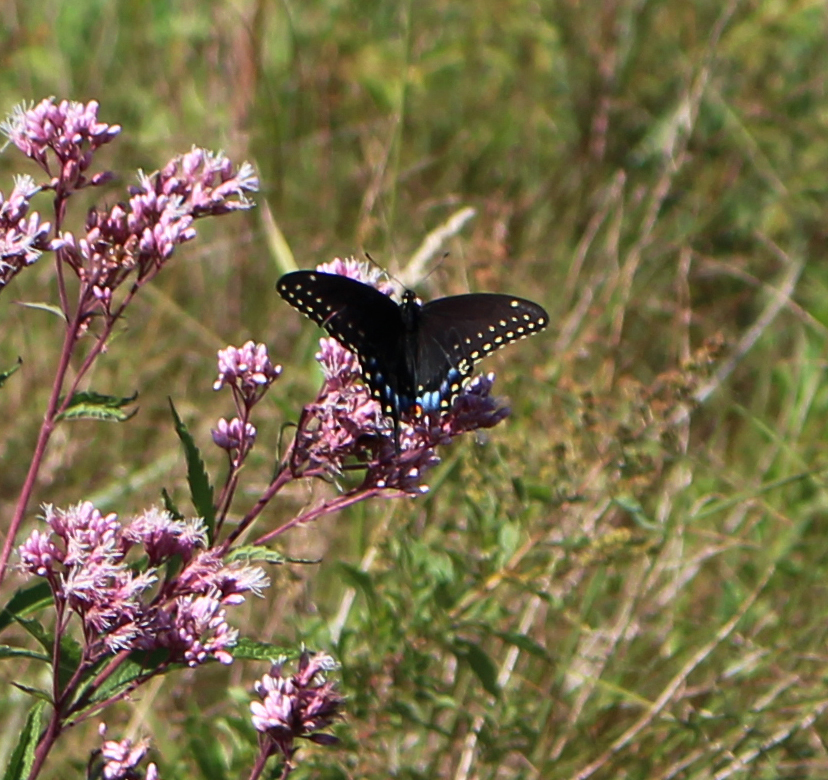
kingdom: Animalia
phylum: Arthropoda
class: Insecta
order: Lepidoptera
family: Papilionidae
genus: Papilio
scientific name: Papilio polyxenes
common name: Black swallowtail
